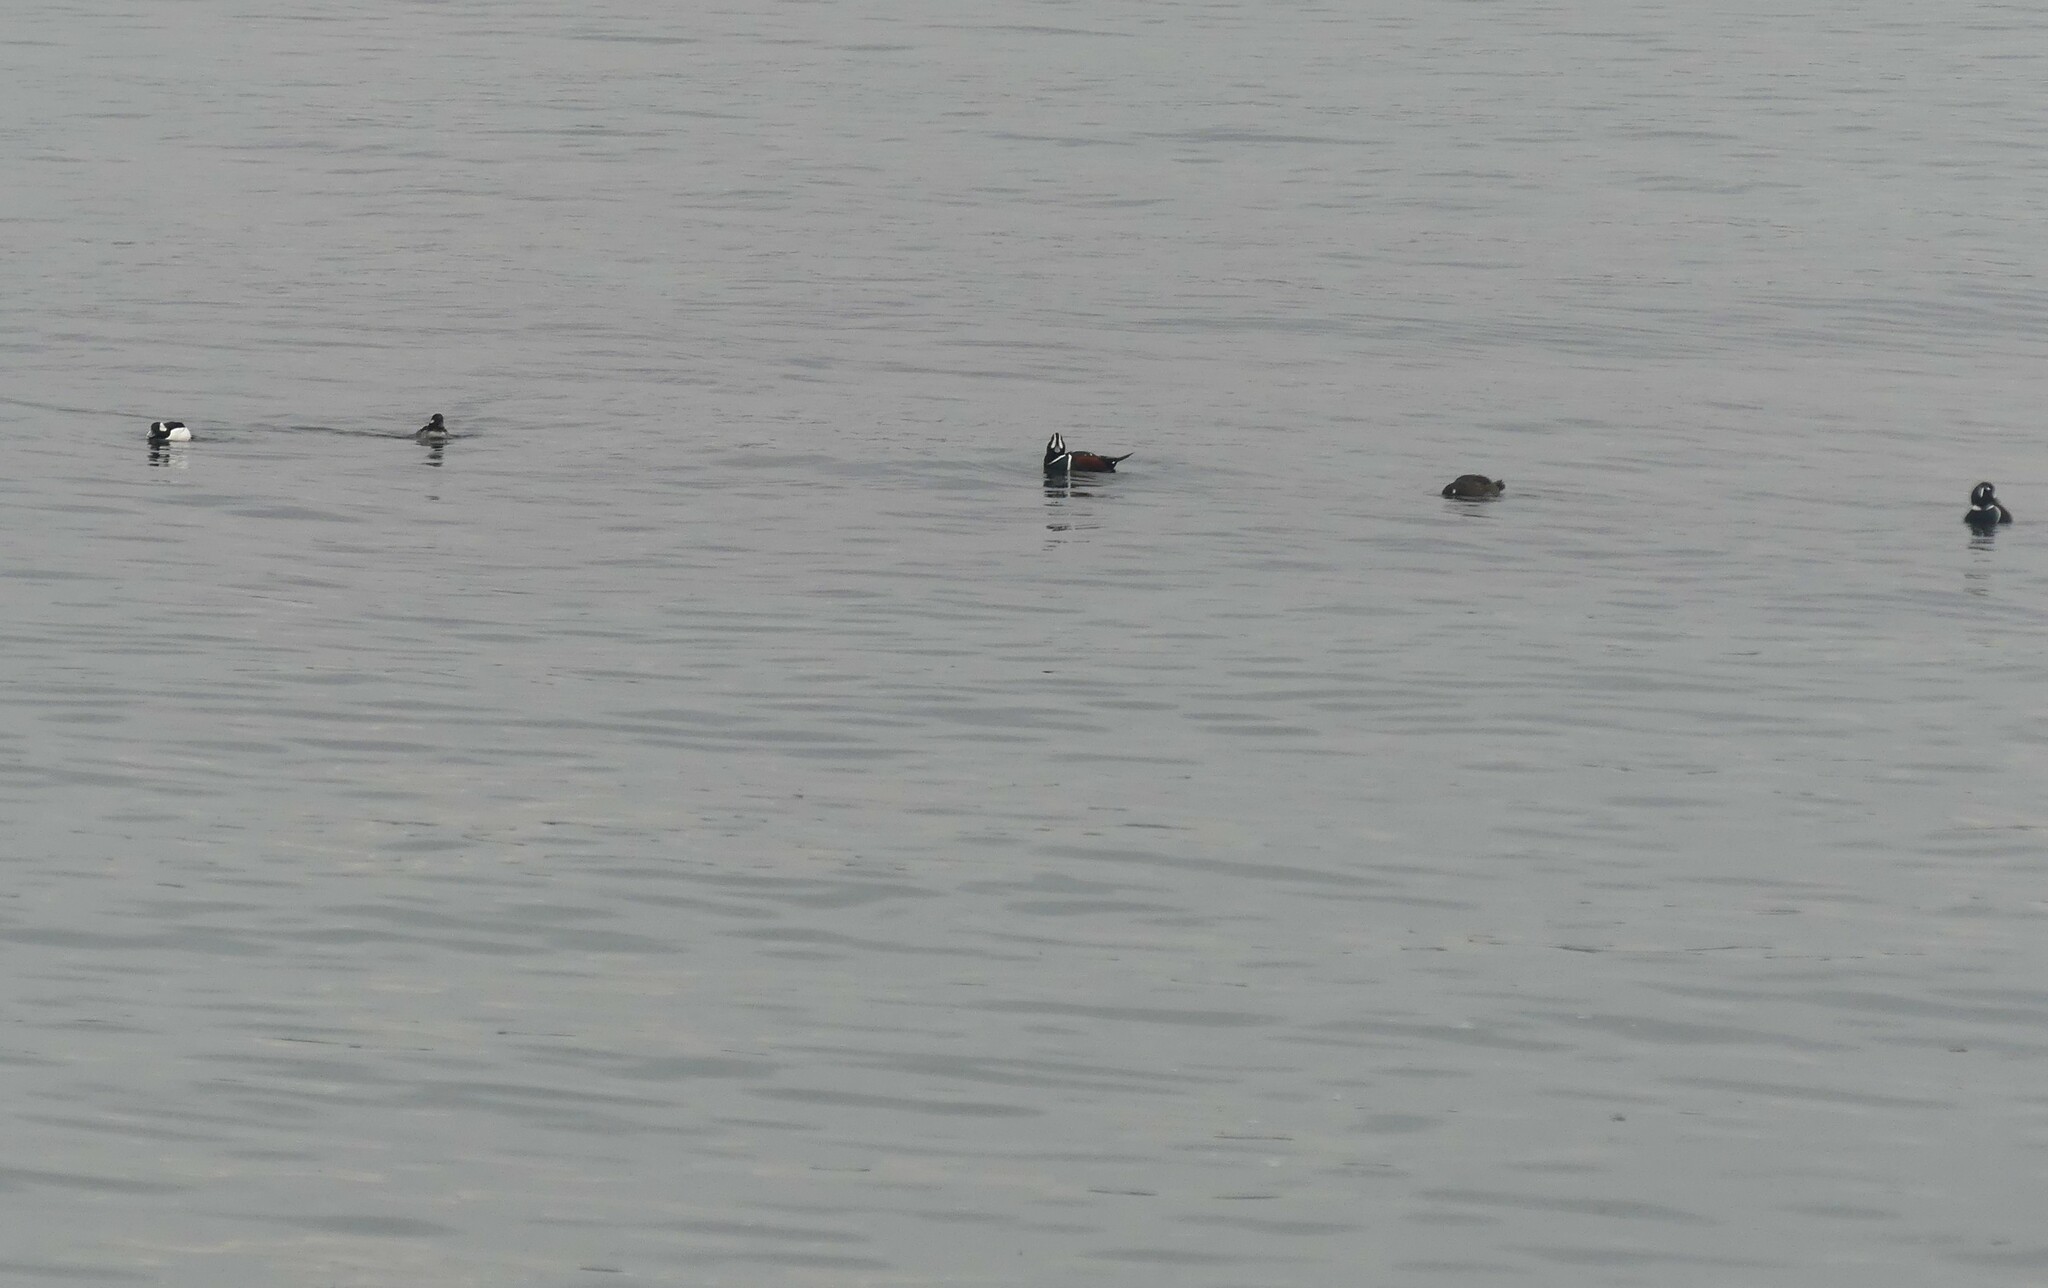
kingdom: Animalia
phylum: Chordata
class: Aves
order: Anseriformes
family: Anatidae
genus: Histrionicus
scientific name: Histrionicus histrionicus
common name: Harlequin duck
